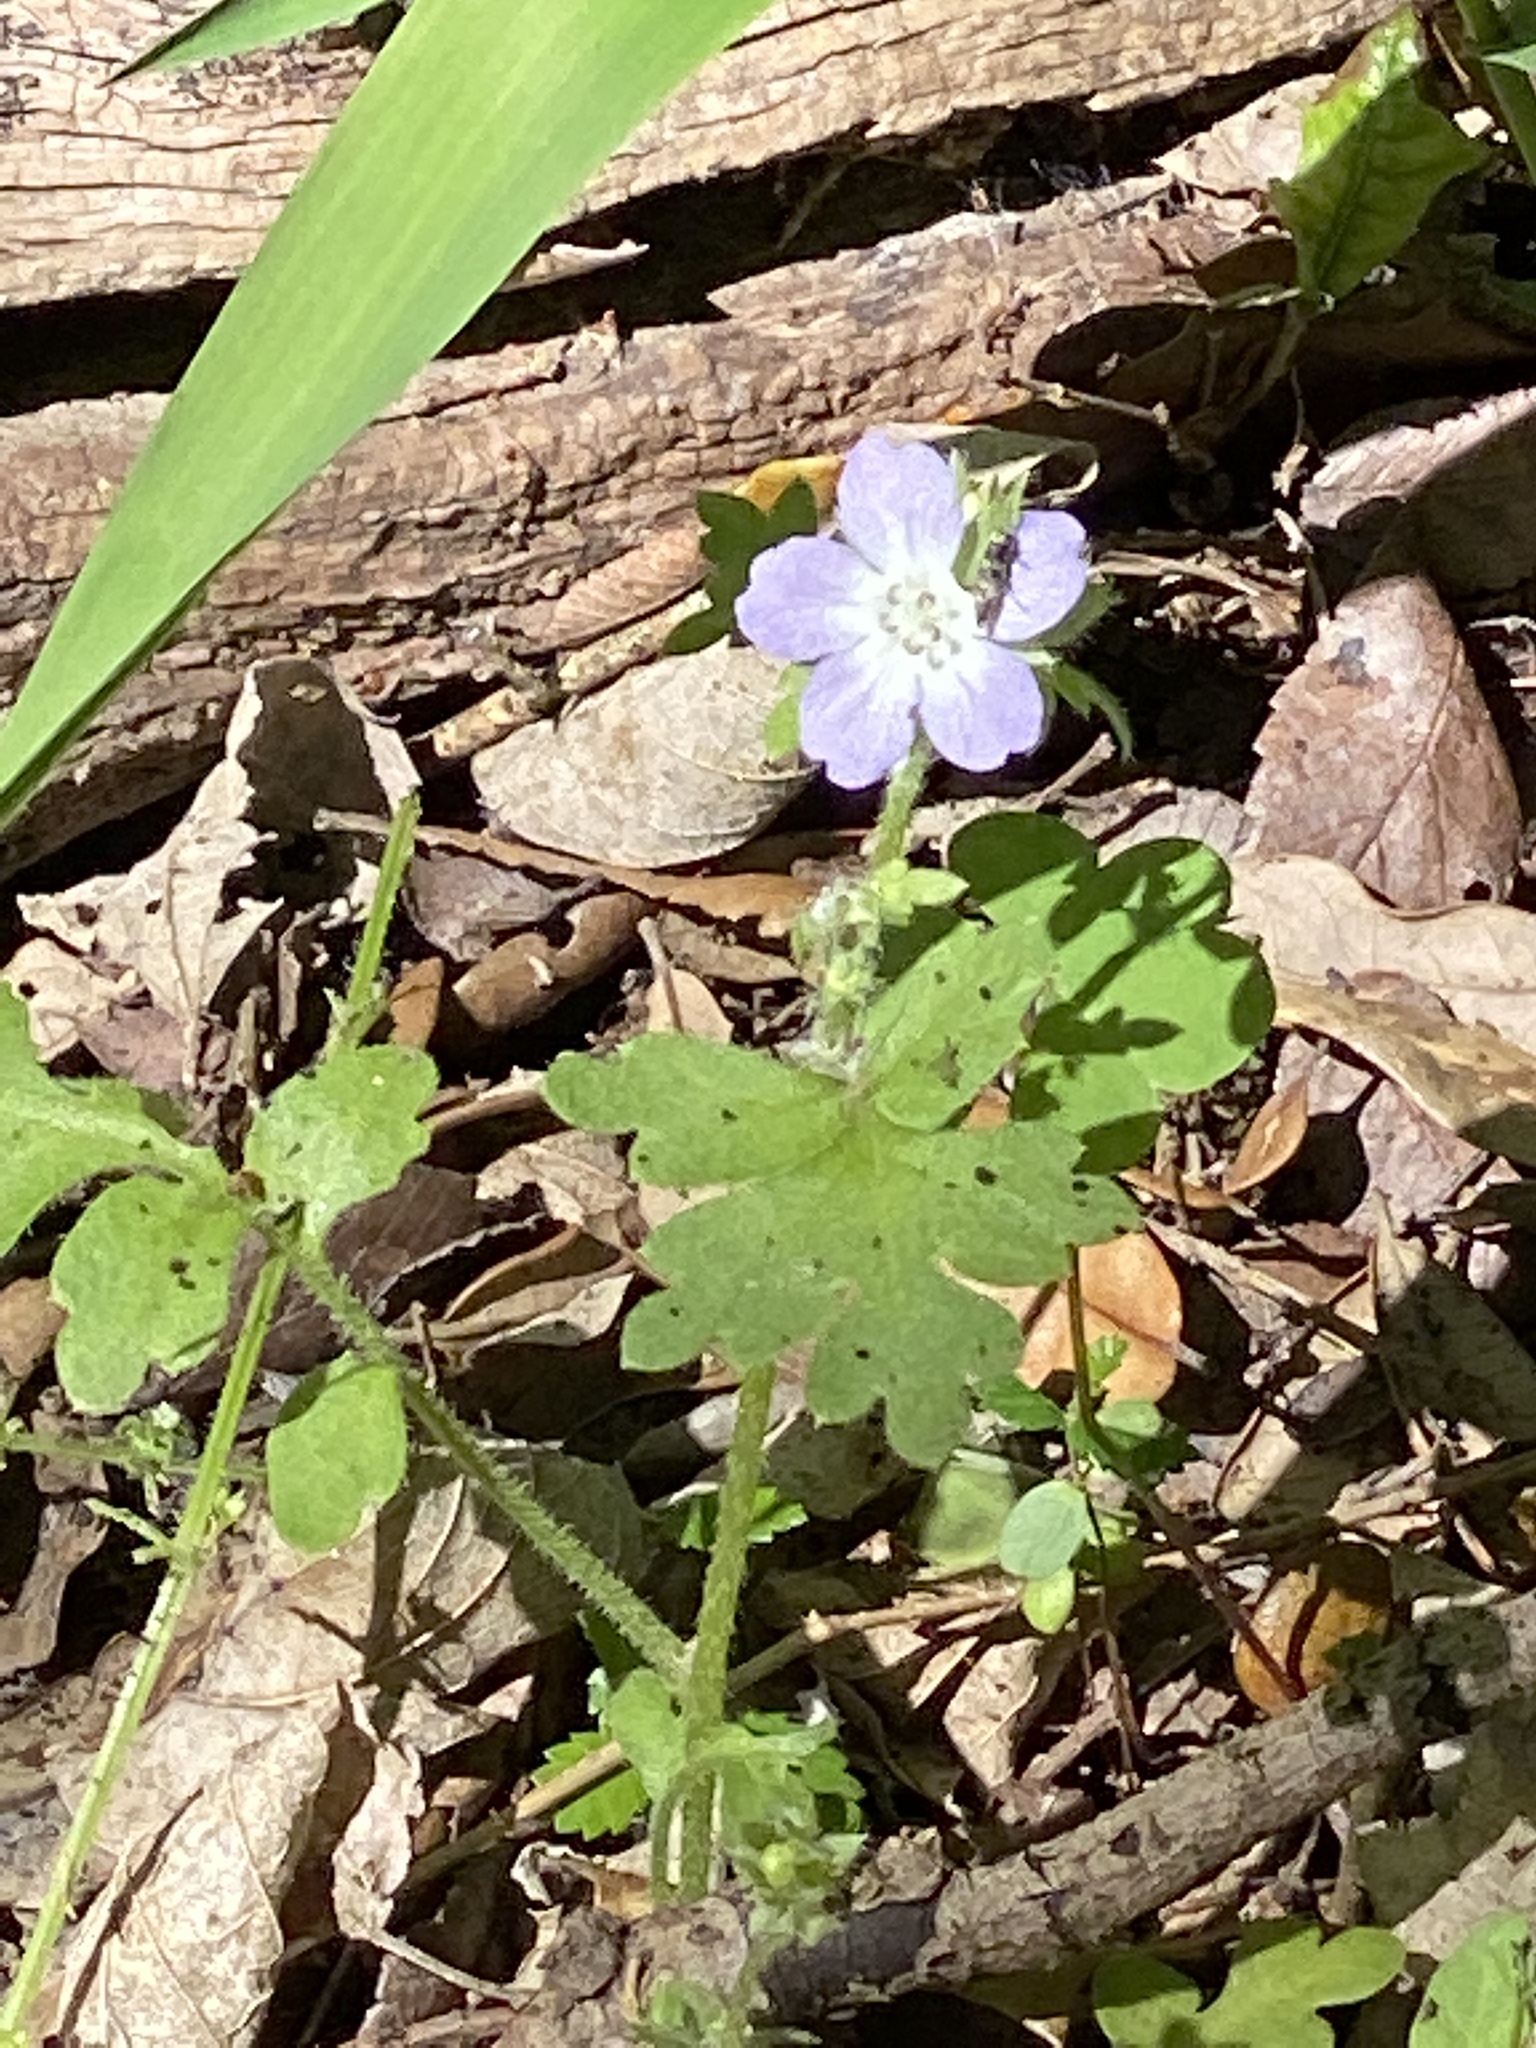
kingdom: Plantae
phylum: Tracheophyta
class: Magnoliopsida
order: Boraginales
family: Hydrophyllaceae
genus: Nemophila
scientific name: Nemophila phacelioides
